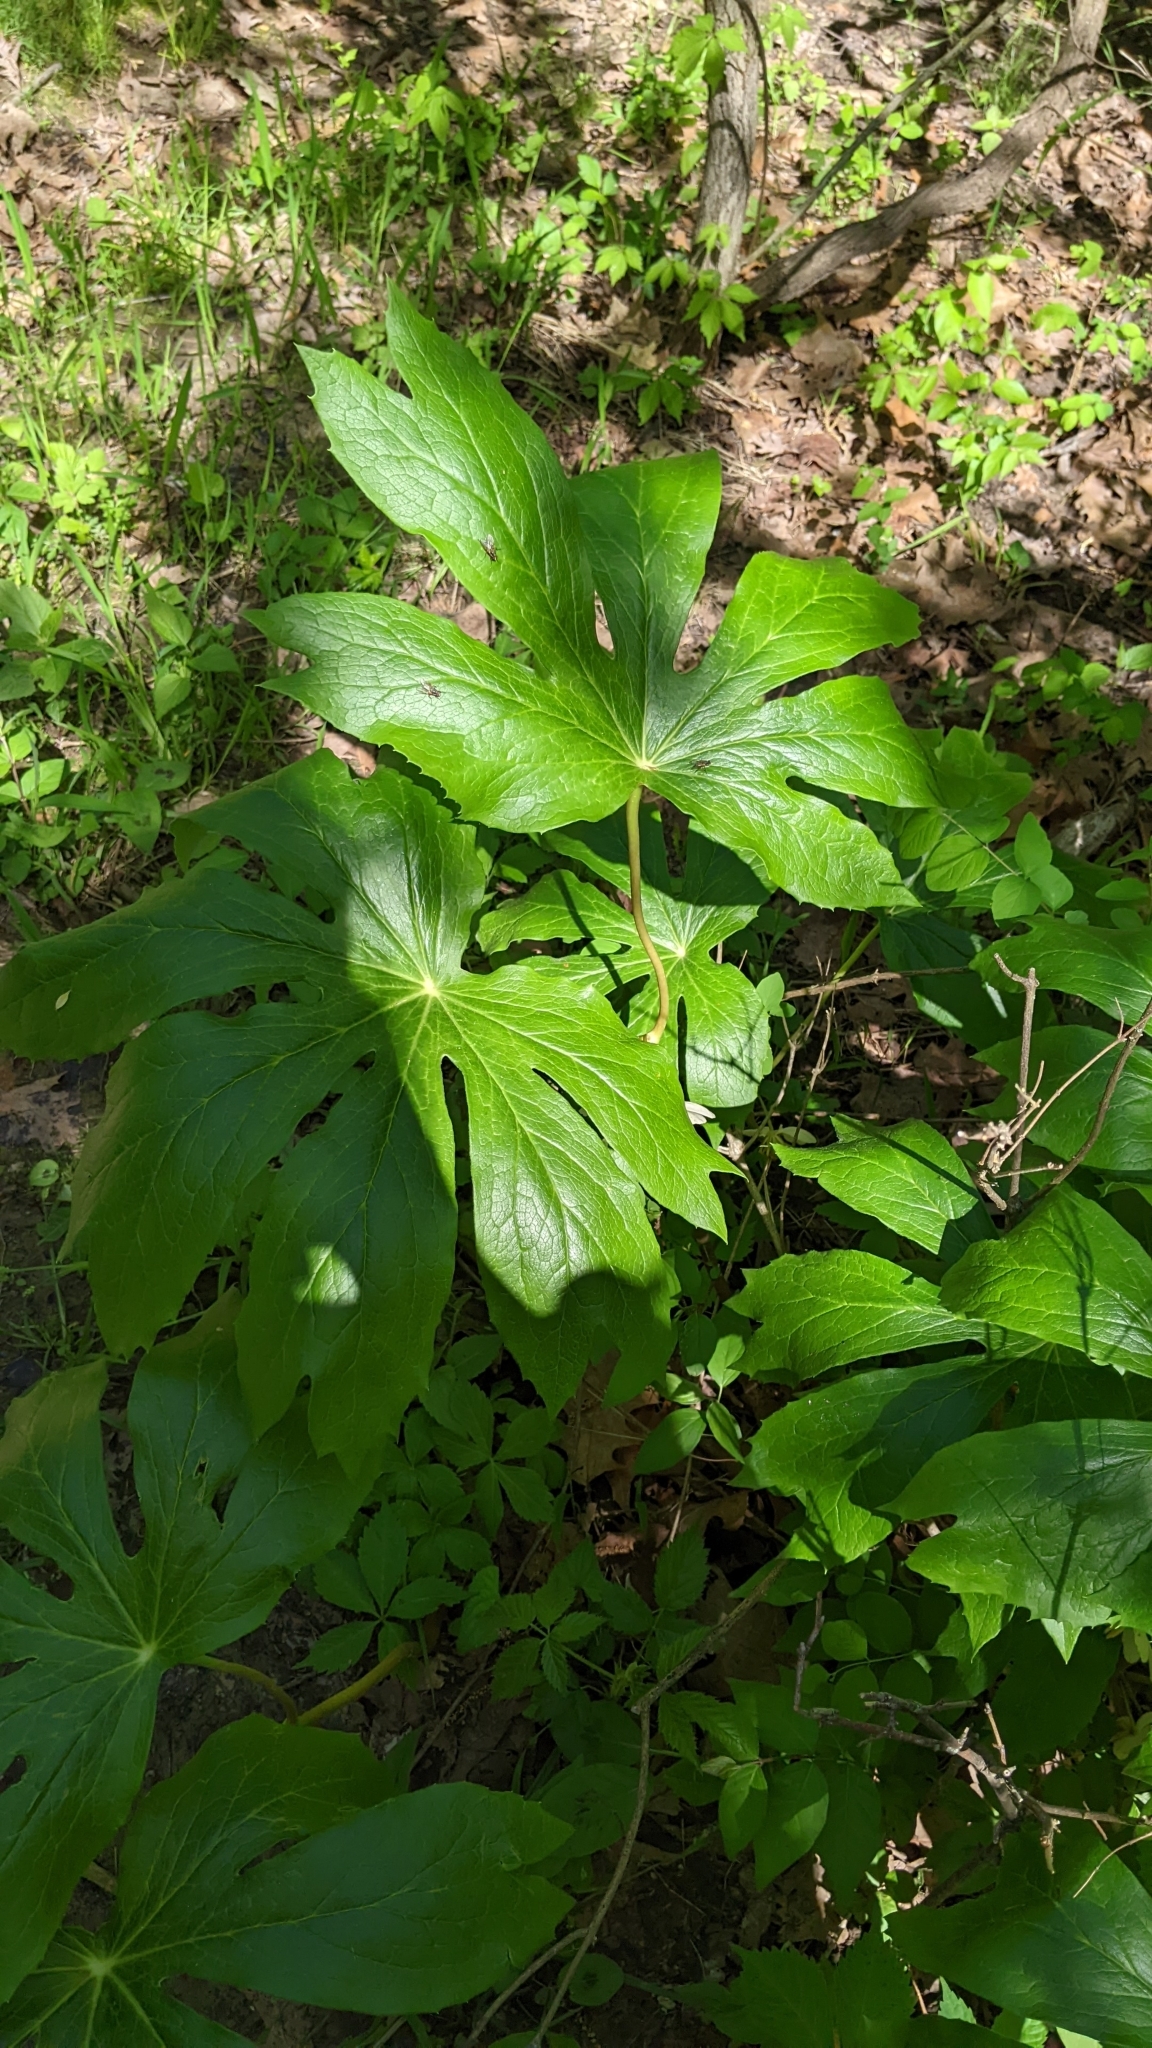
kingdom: Plantae
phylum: Tracheophyta
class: Magnoliopsida
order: Ranunculales
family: Berberidaceae
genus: Podophyllum
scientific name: Podophyllum peltatum
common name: Wild mandrake
